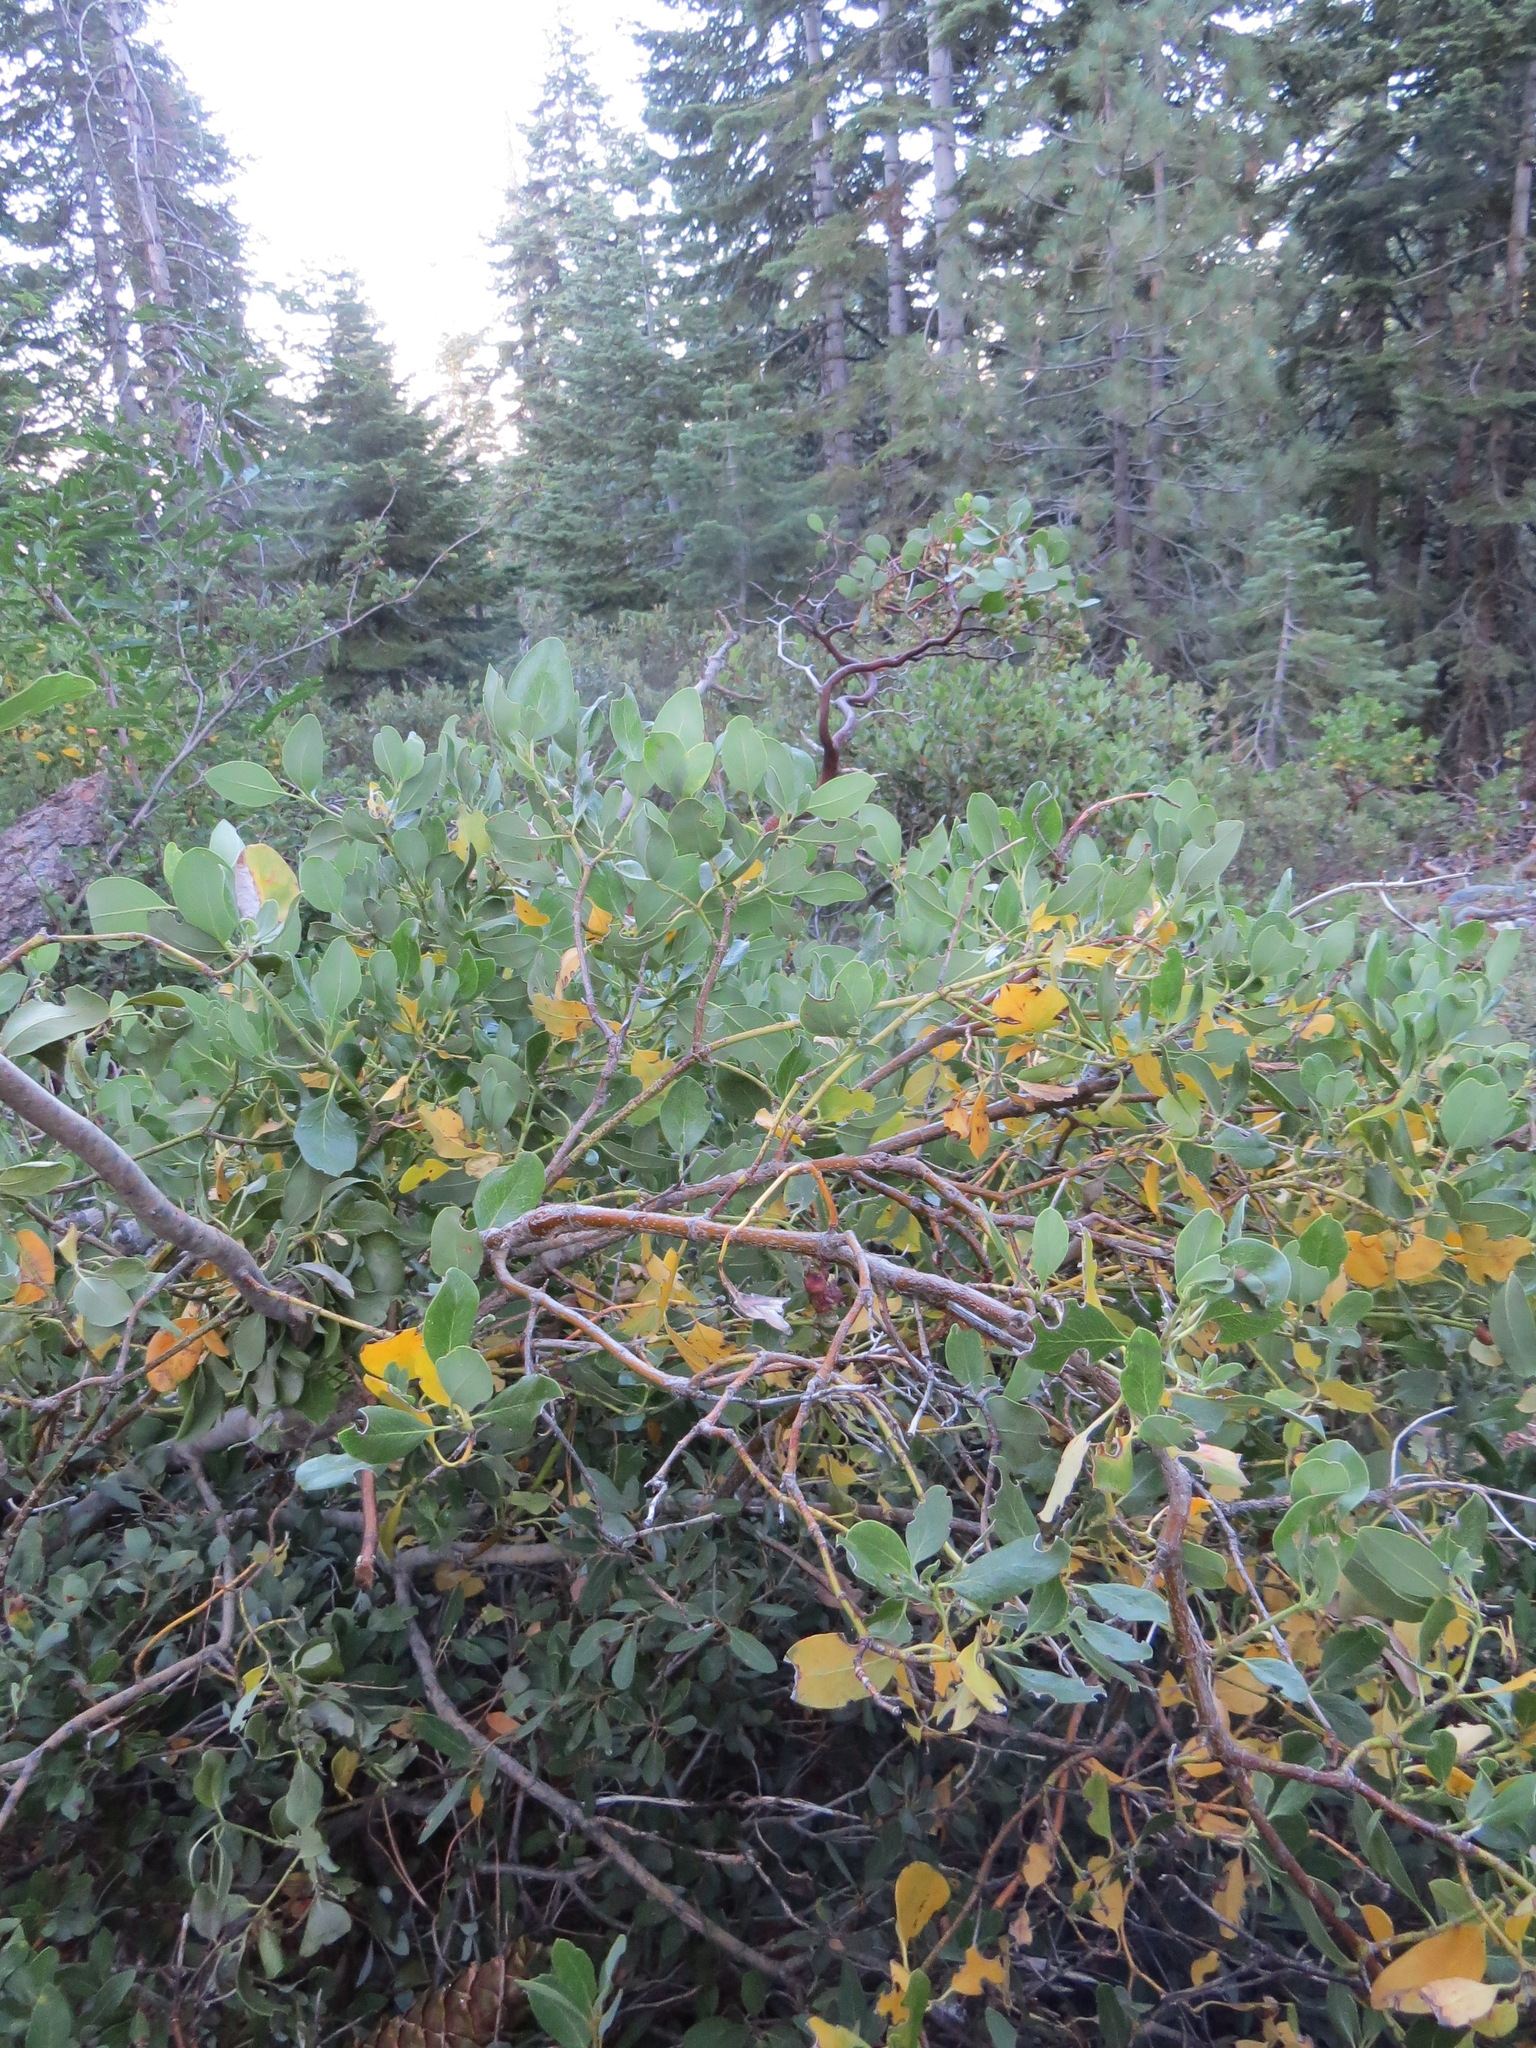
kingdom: Animalia
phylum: Arthropoda
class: Insecta
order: Diptera
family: Cecidomyiidae
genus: Asphondylia
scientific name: Asphondylia garryae
